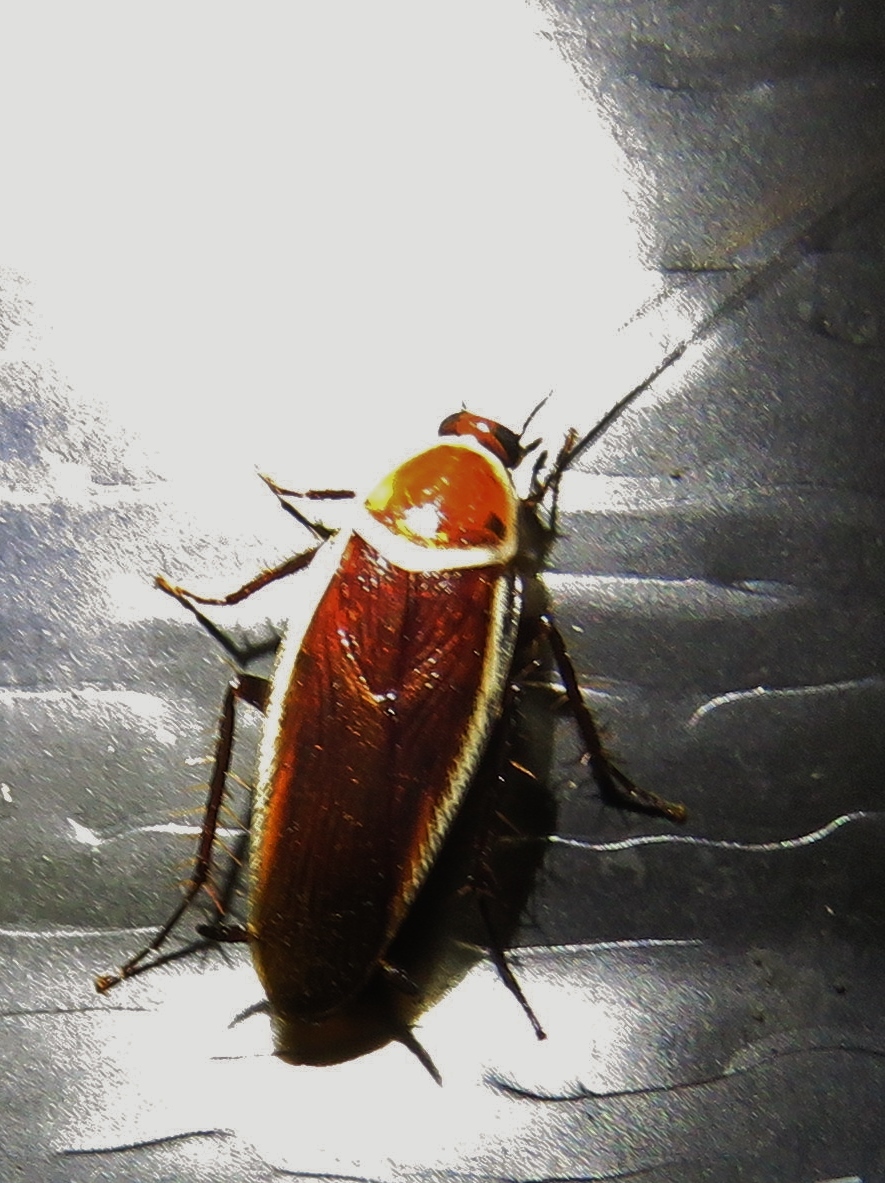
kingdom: Animalia
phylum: Arthropoda
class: Insecta
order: Blattodea
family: Ectobiidae
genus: Pseudomops
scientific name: Pseudomops septentrionalis
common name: Pale-bordered field cockroach
